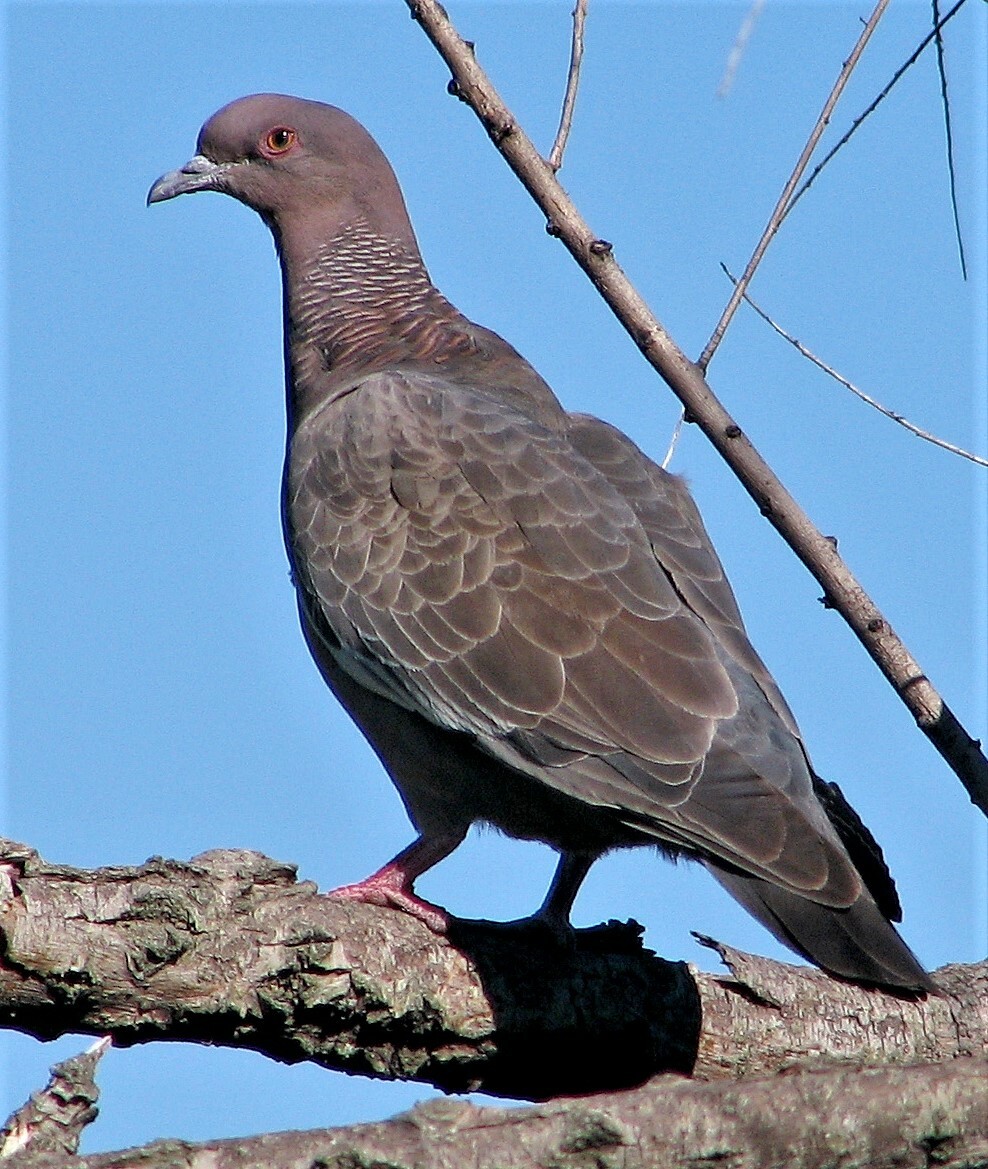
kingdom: Animalia
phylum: Chordata
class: Aves
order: Columbiformes
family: Columbidae
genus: Patagioenas
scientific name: Patagioenas picazuro
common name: Picazuro pigeon
